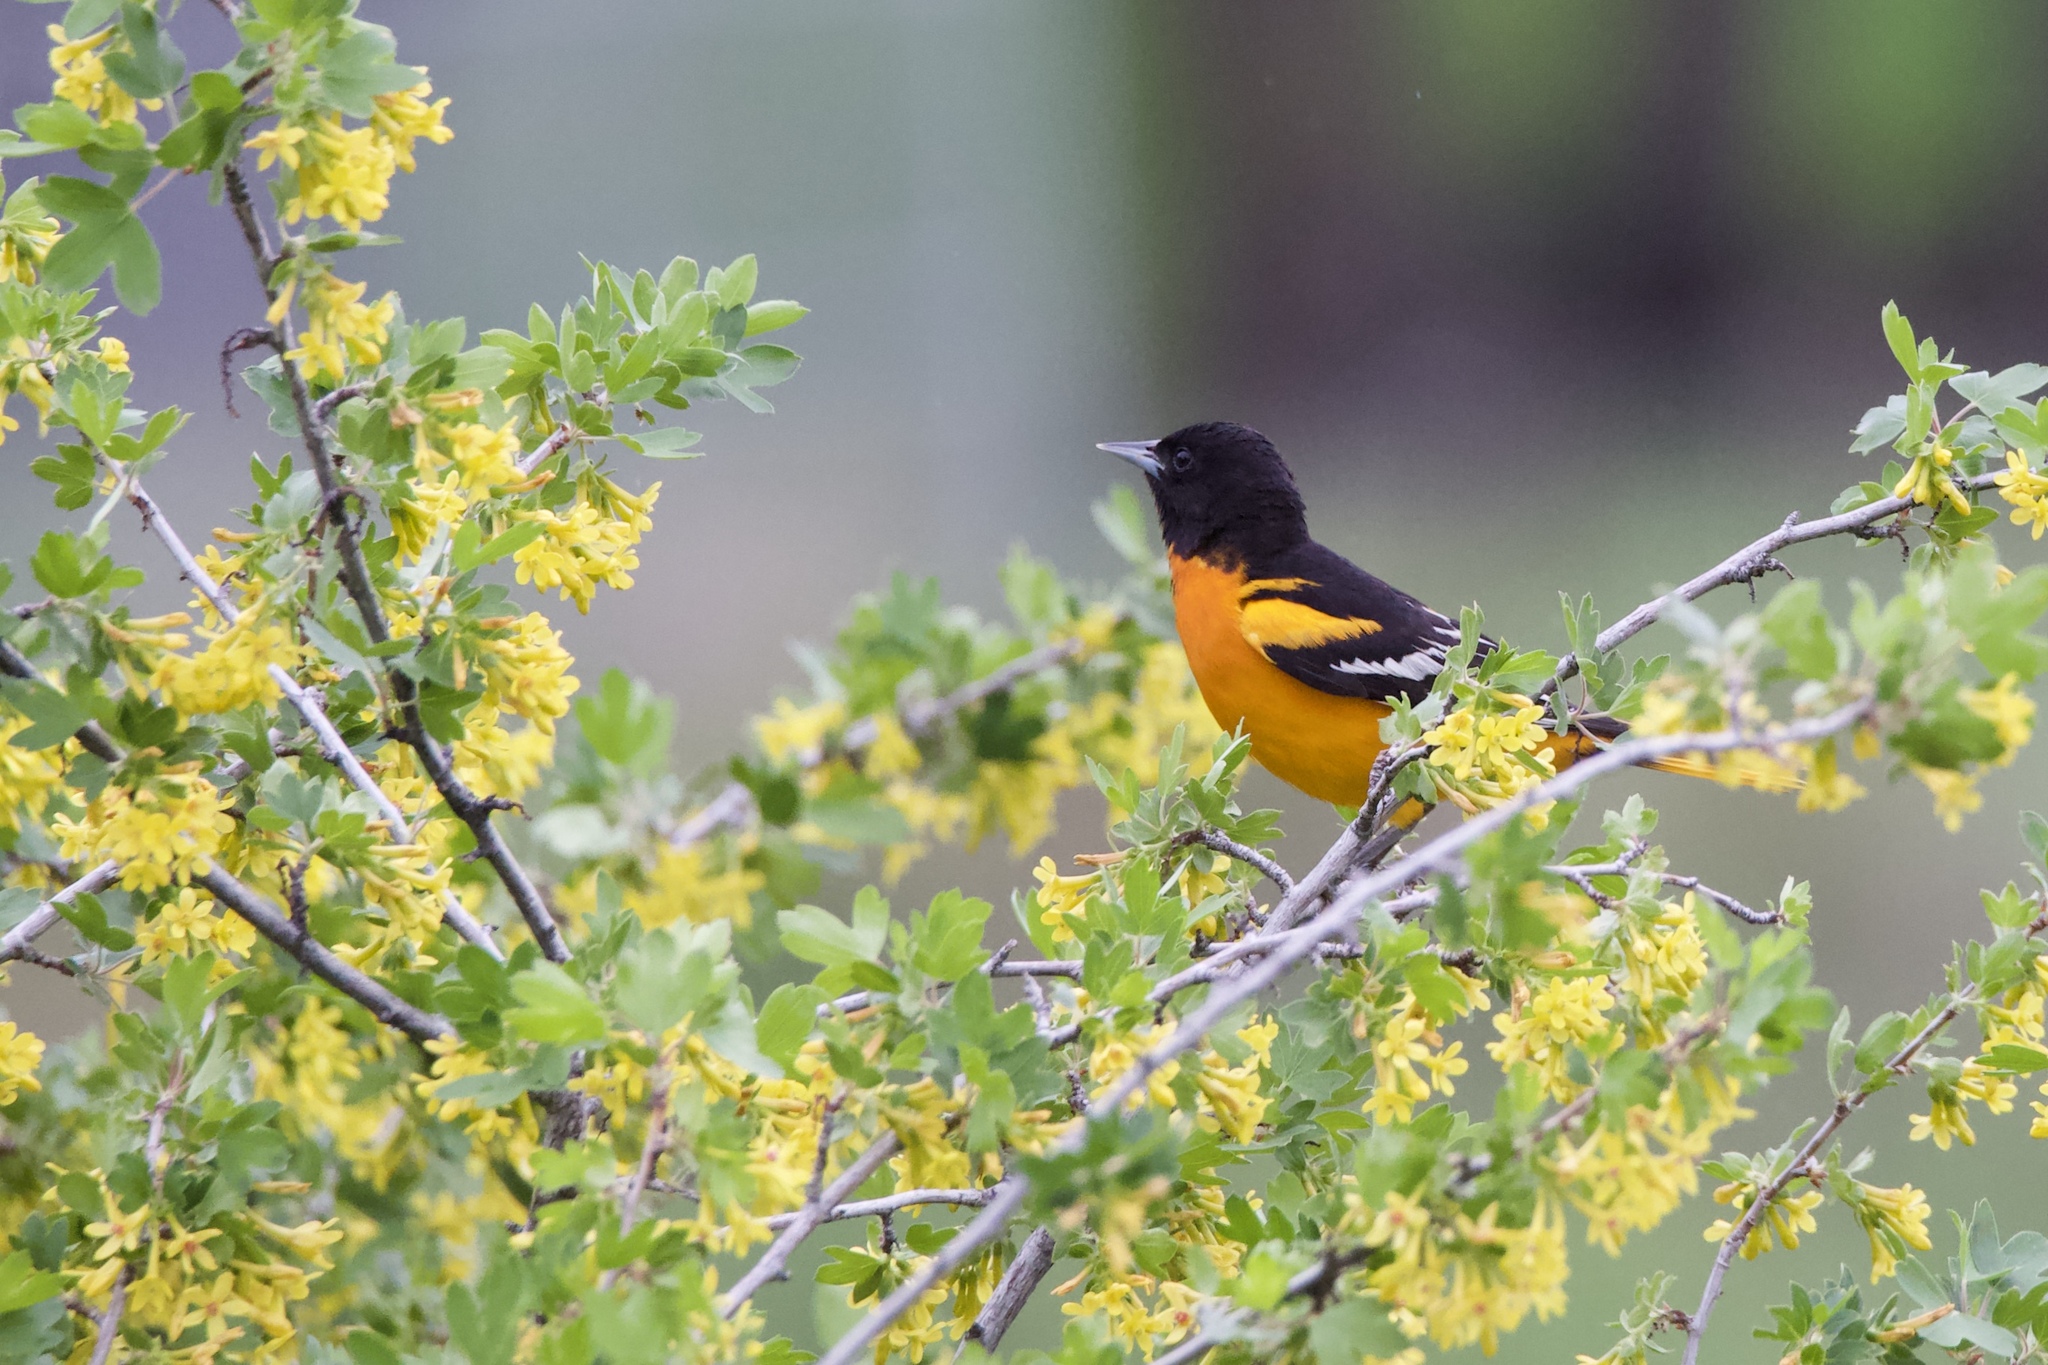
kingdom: Animalia
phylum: Chordata
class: Aves
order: Passeriformes
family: Icteridae
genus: Icterus
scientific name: Icterus galbula
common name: Baltimore oriole
